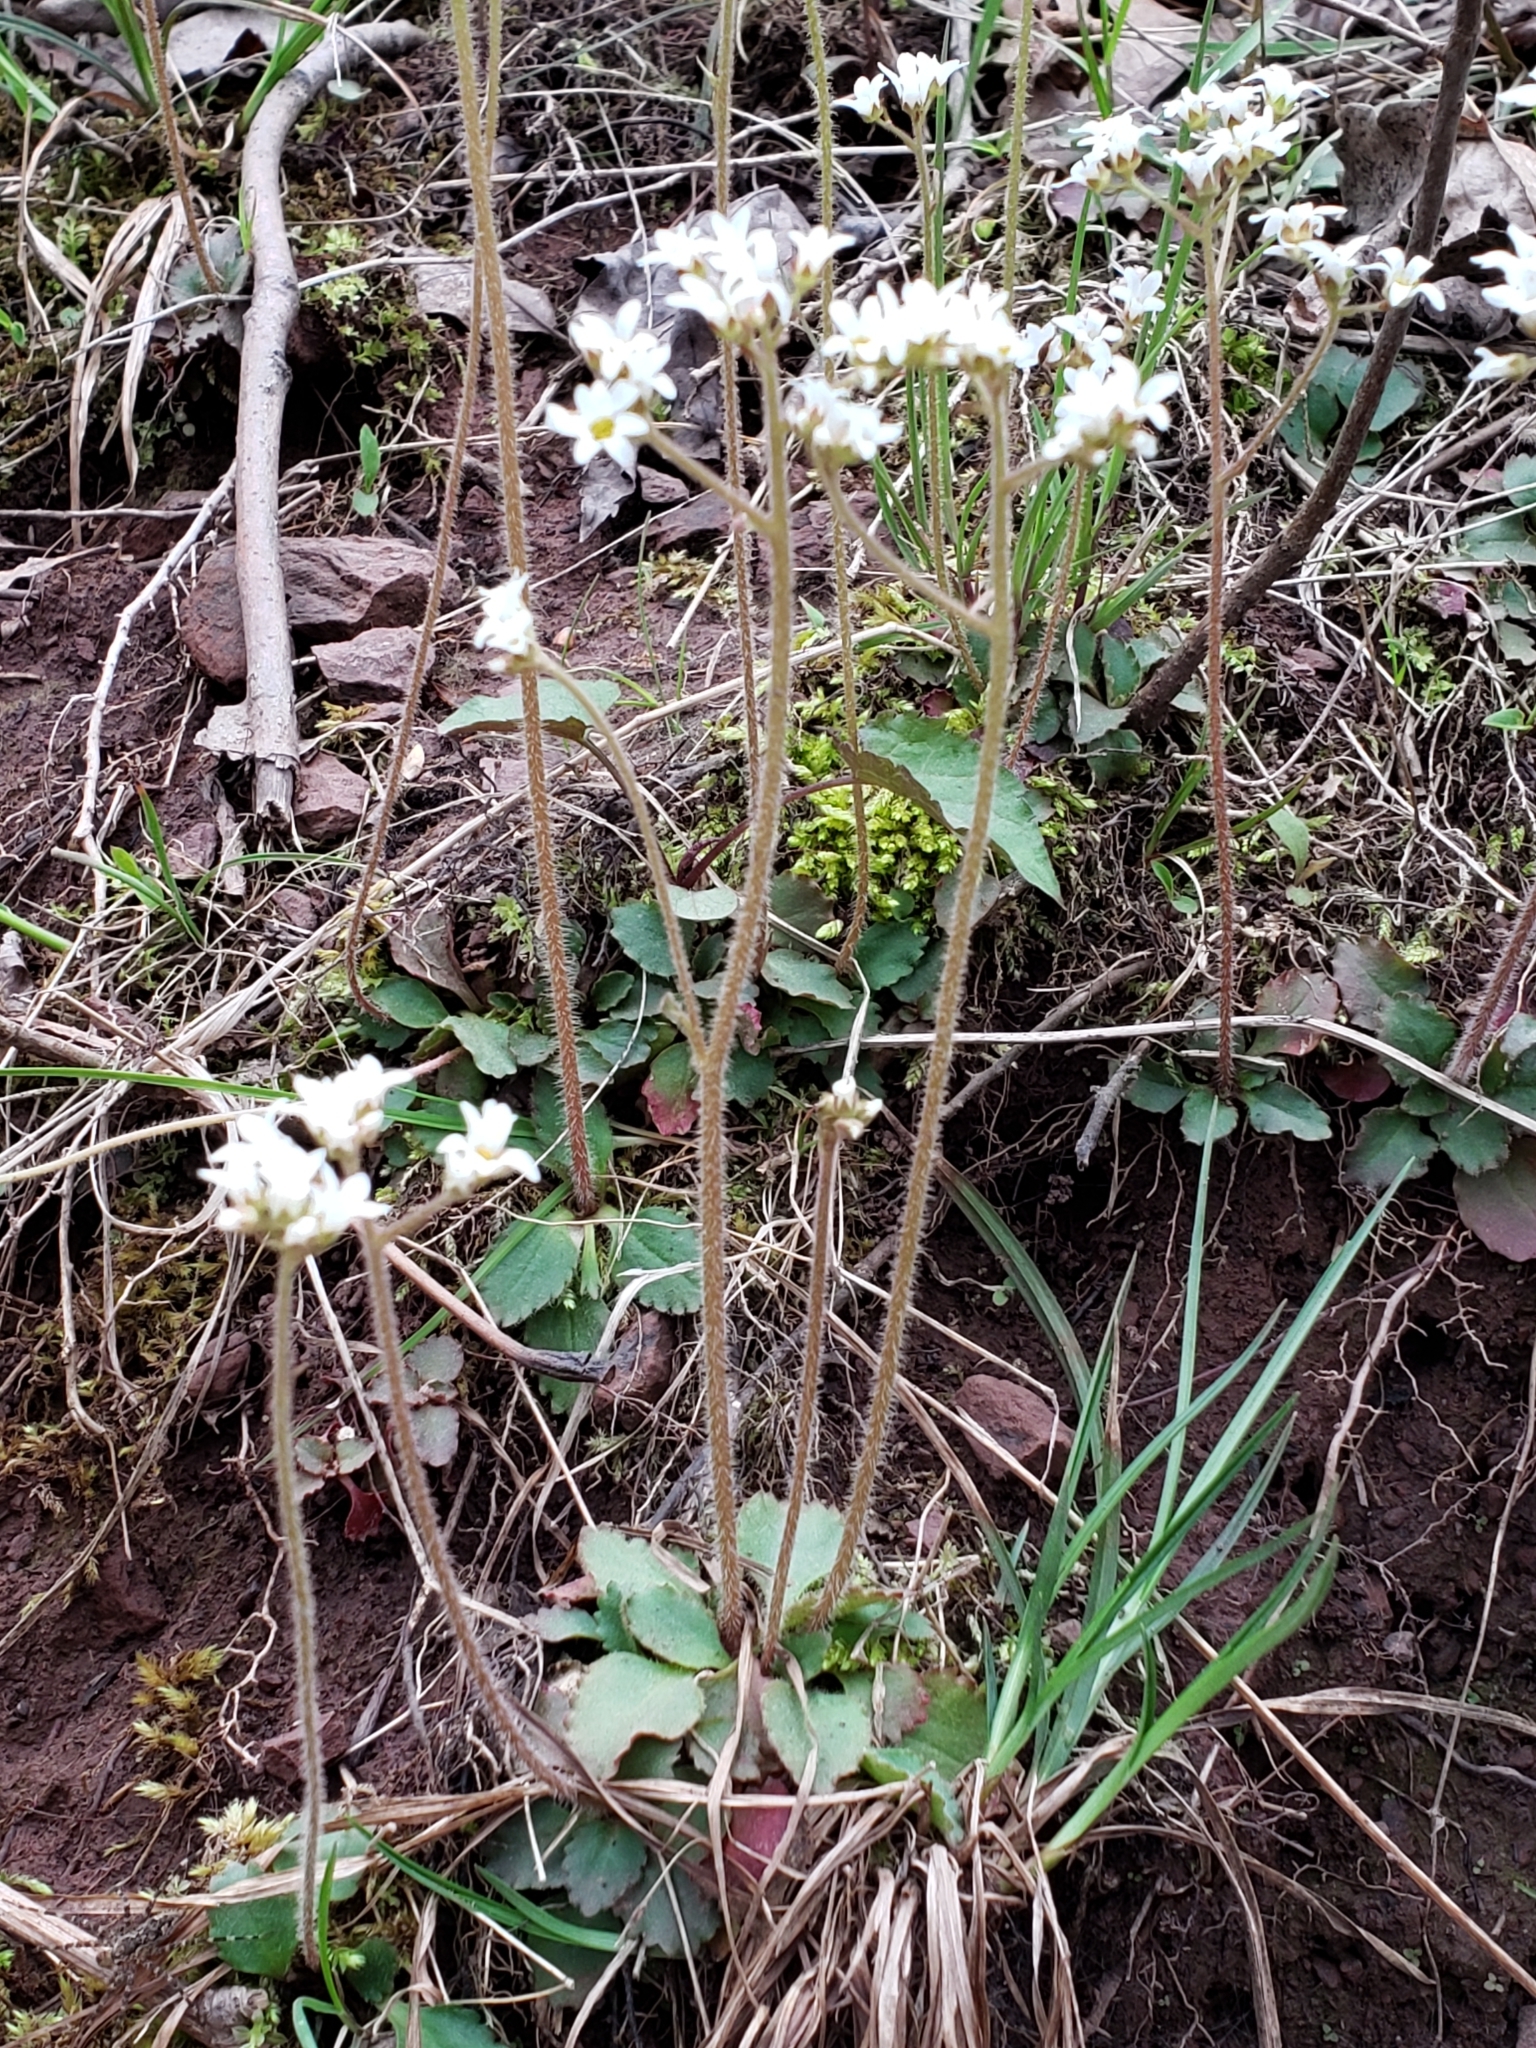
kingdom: Plantae
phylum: Tracheophyta
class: Magnoliopsida
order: Saxifragales
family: Saxifragaceae
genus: Micranthes
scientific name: Micranthes virginiensis
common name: Early saxifrage
